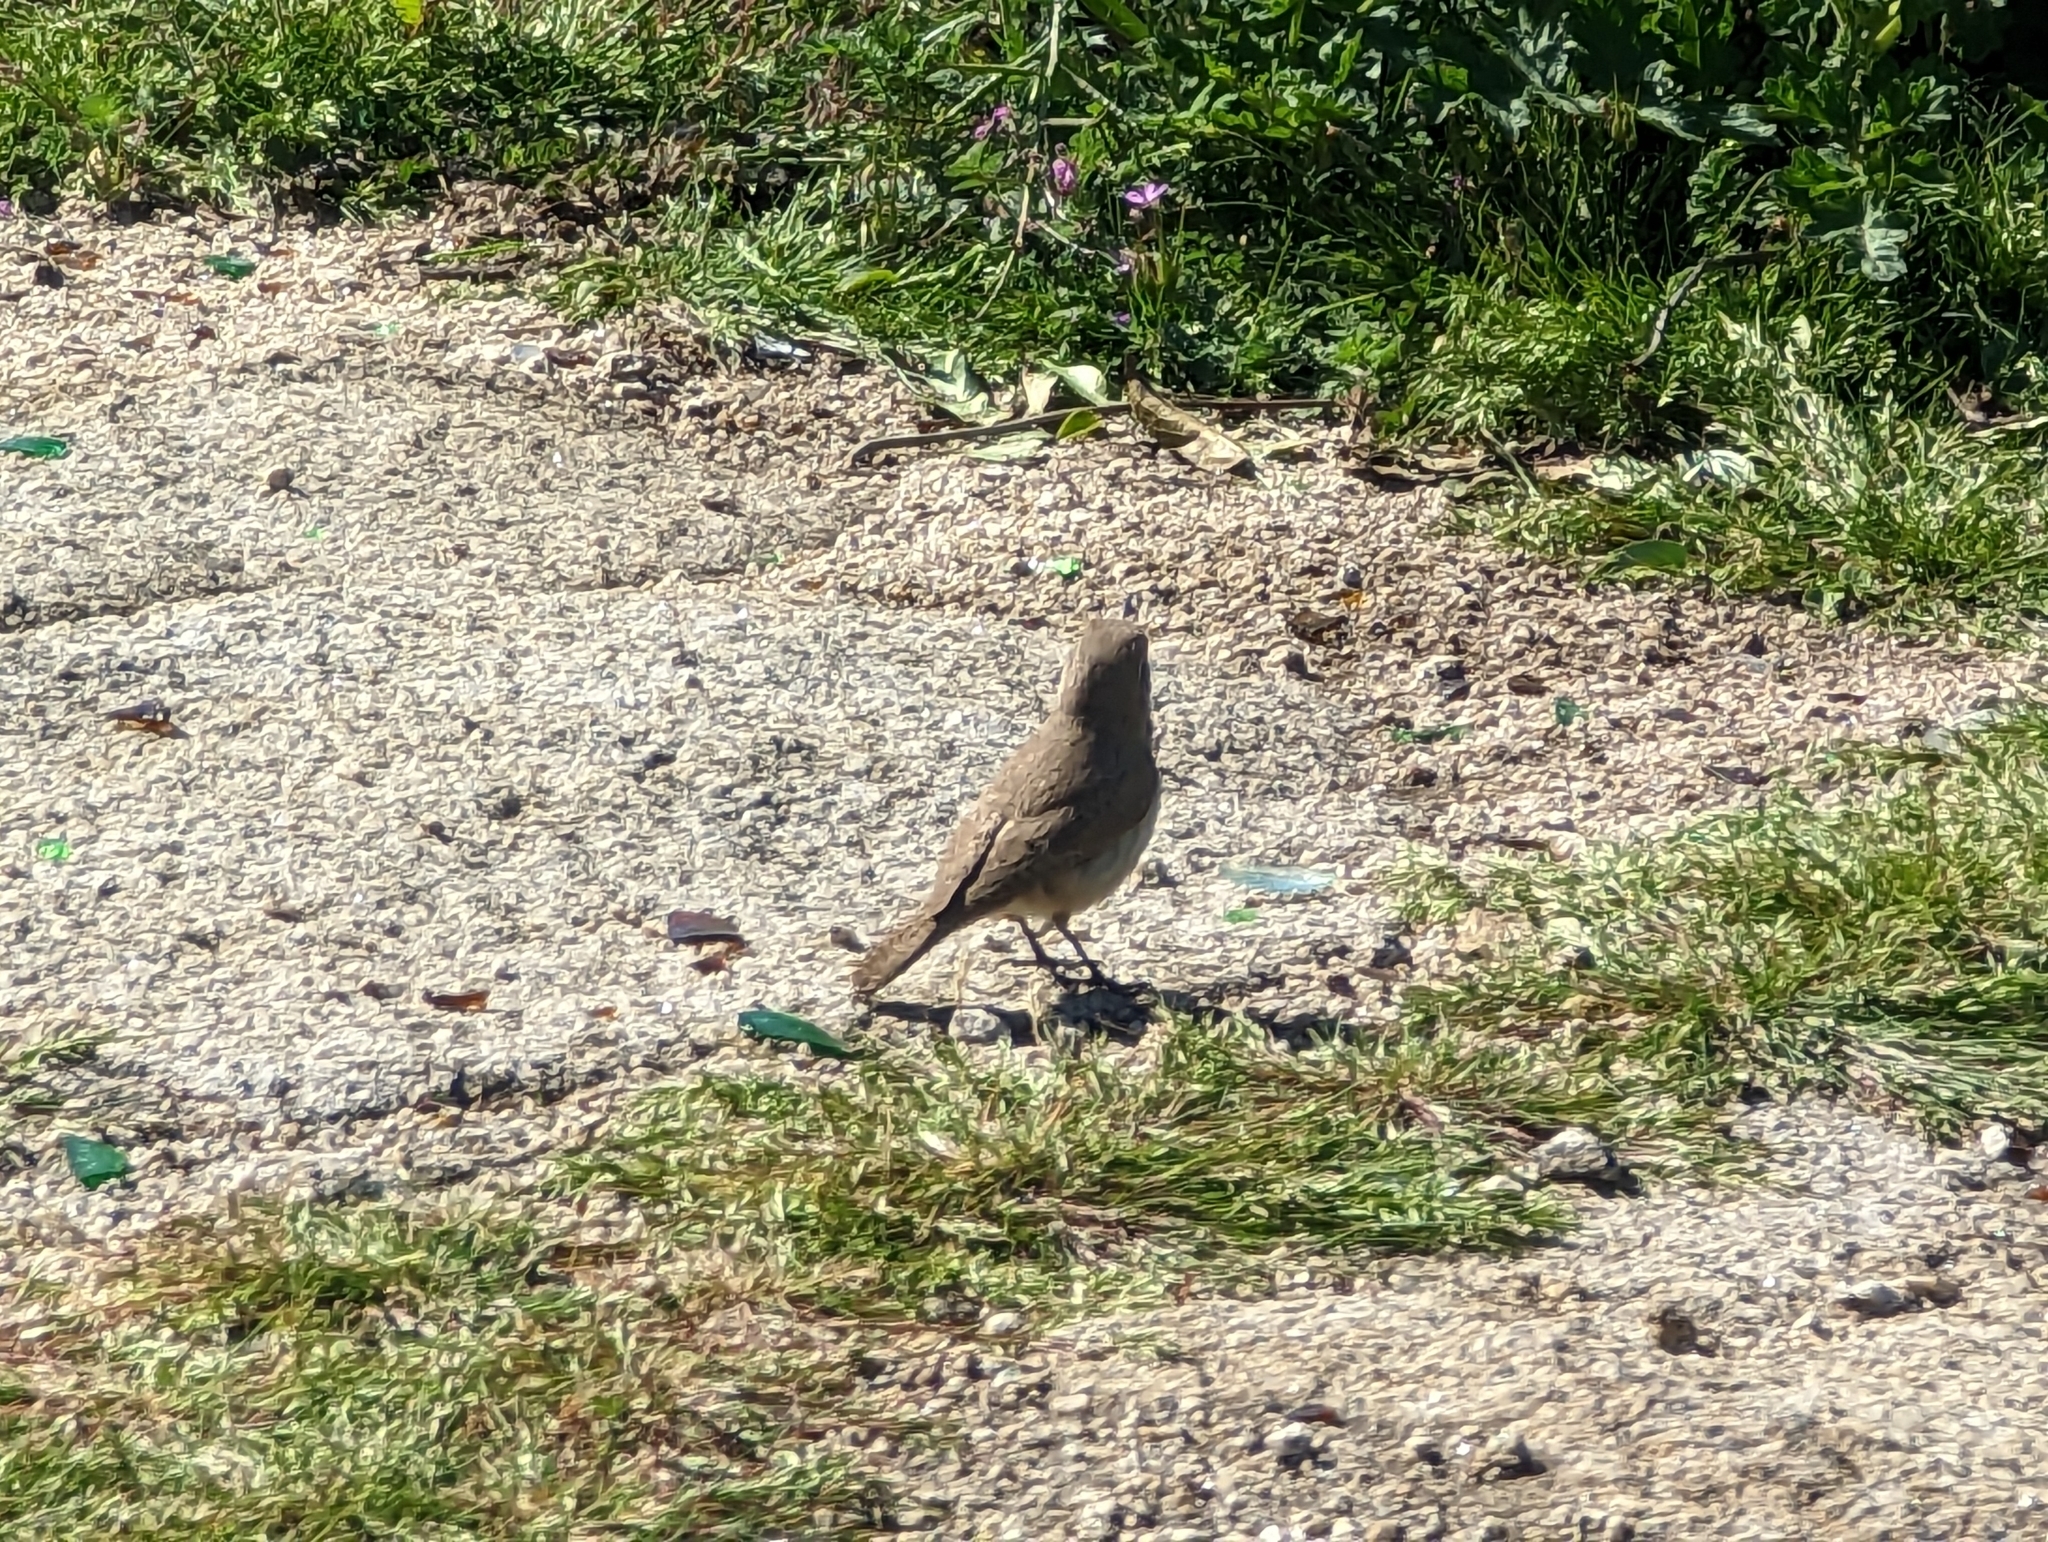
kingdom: Animalia
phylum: Chordata
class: Aves
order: Passeriformes
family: Troglodytidae
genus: Salpinctes
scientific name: Salpinctes obsoletus
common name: Rock wren
